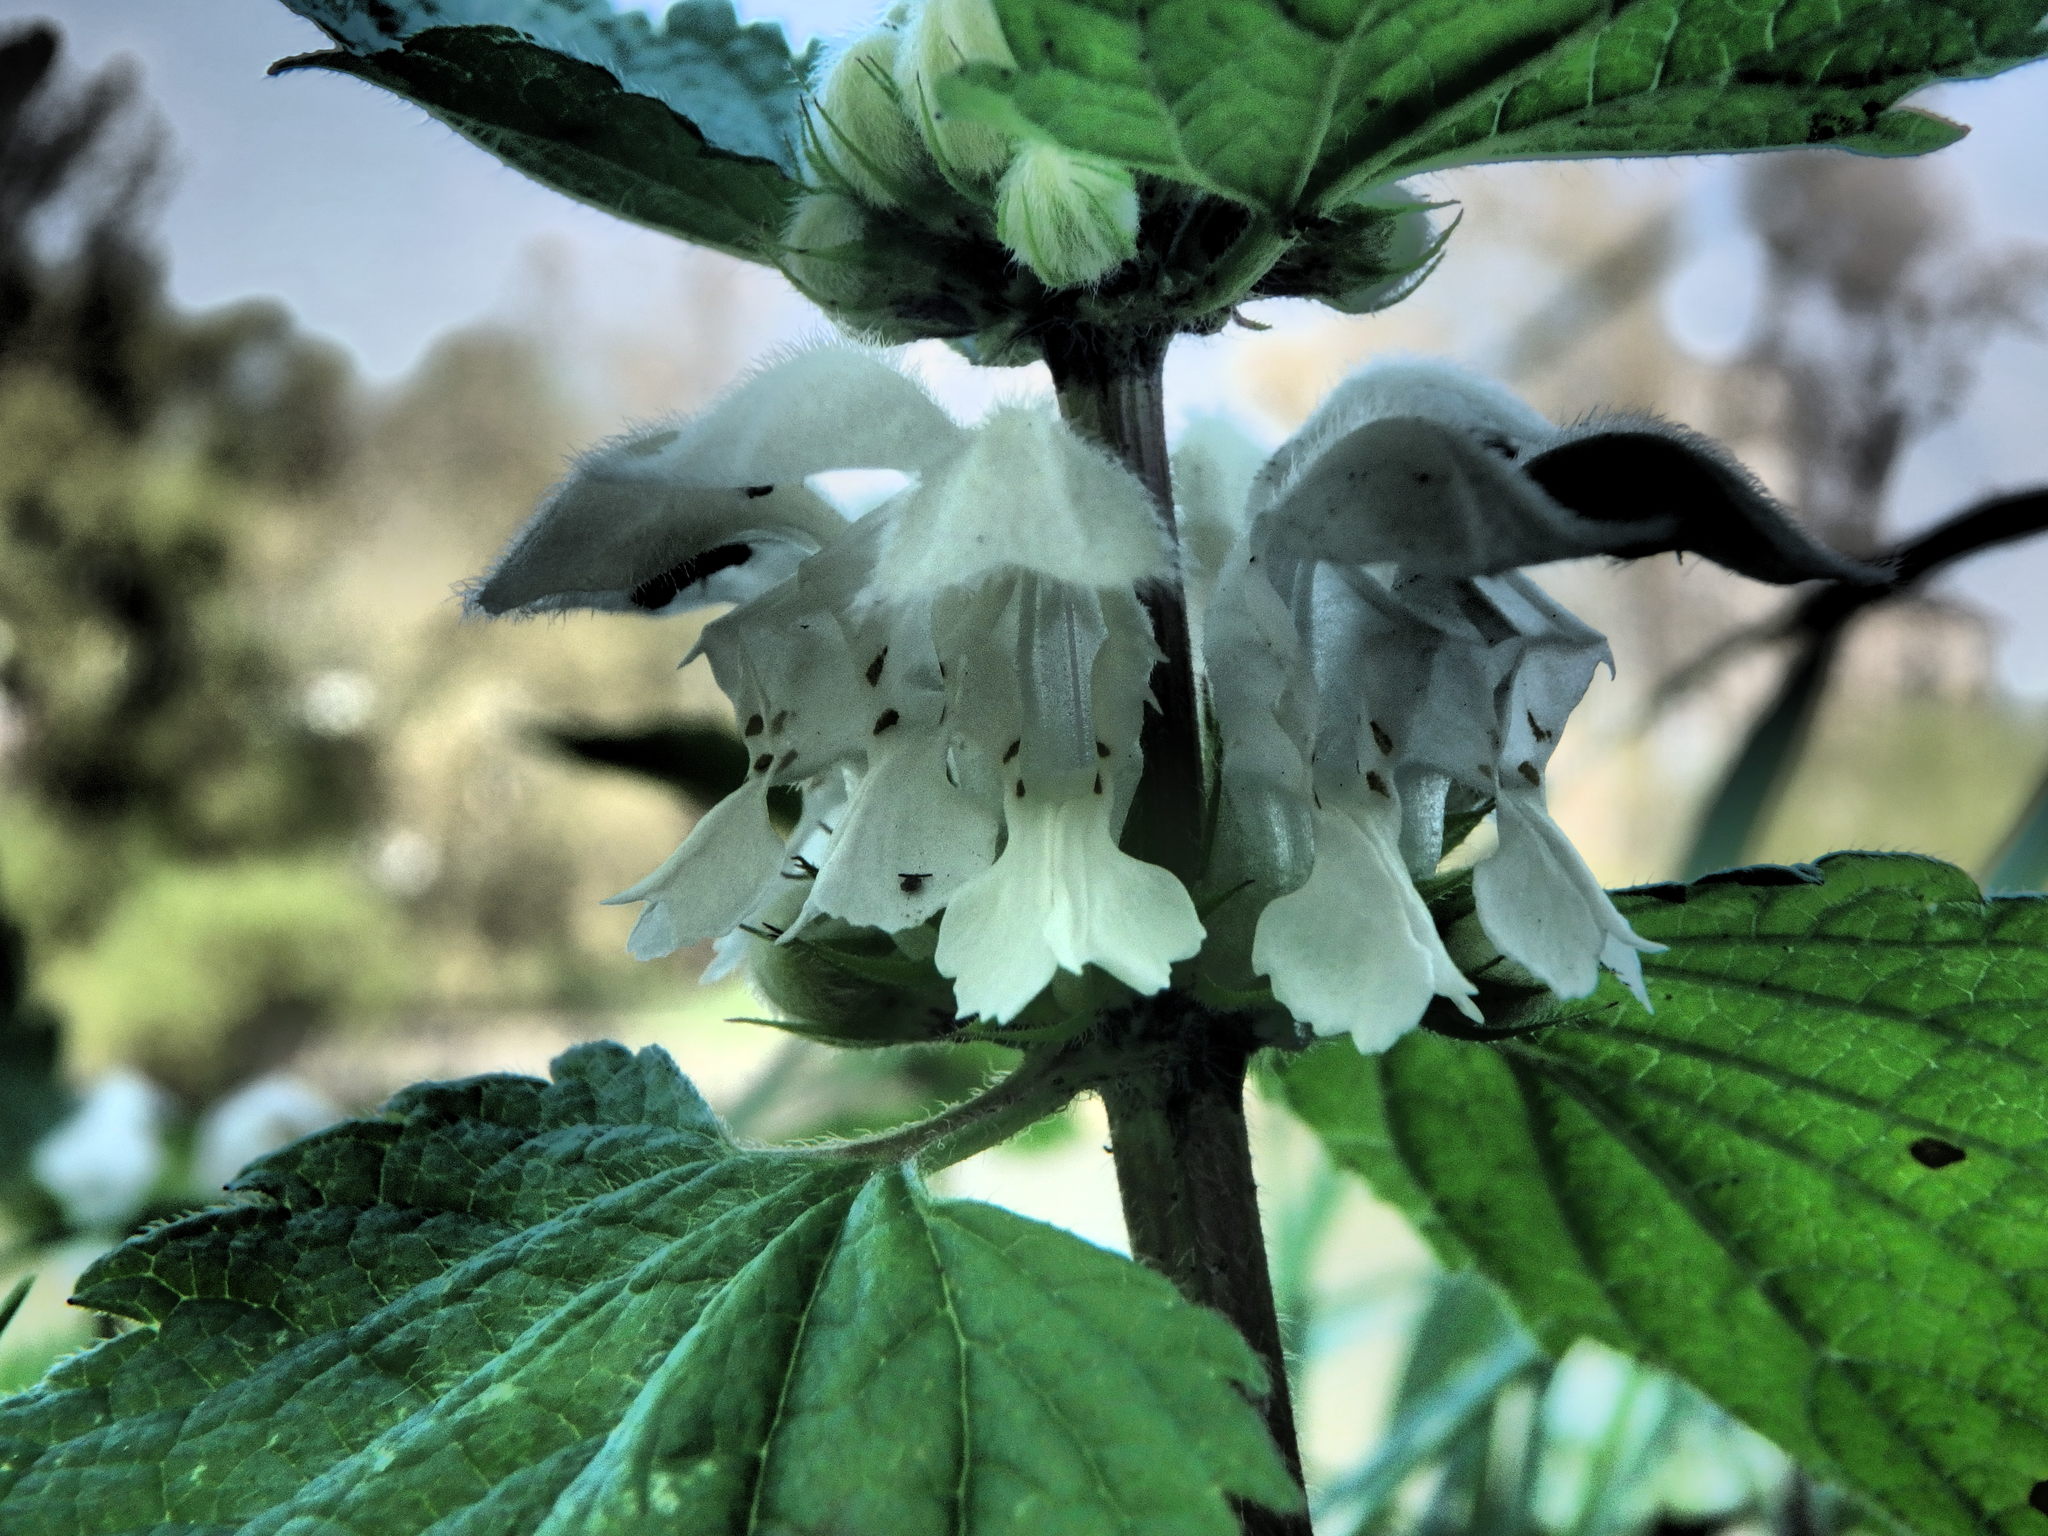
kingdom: Plantae
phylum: Tracheophyta
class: Magnoliopsida
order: Lamiales
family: Lamiaceae
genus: Lamium
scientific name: Lamium album
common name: White dead-nettle
